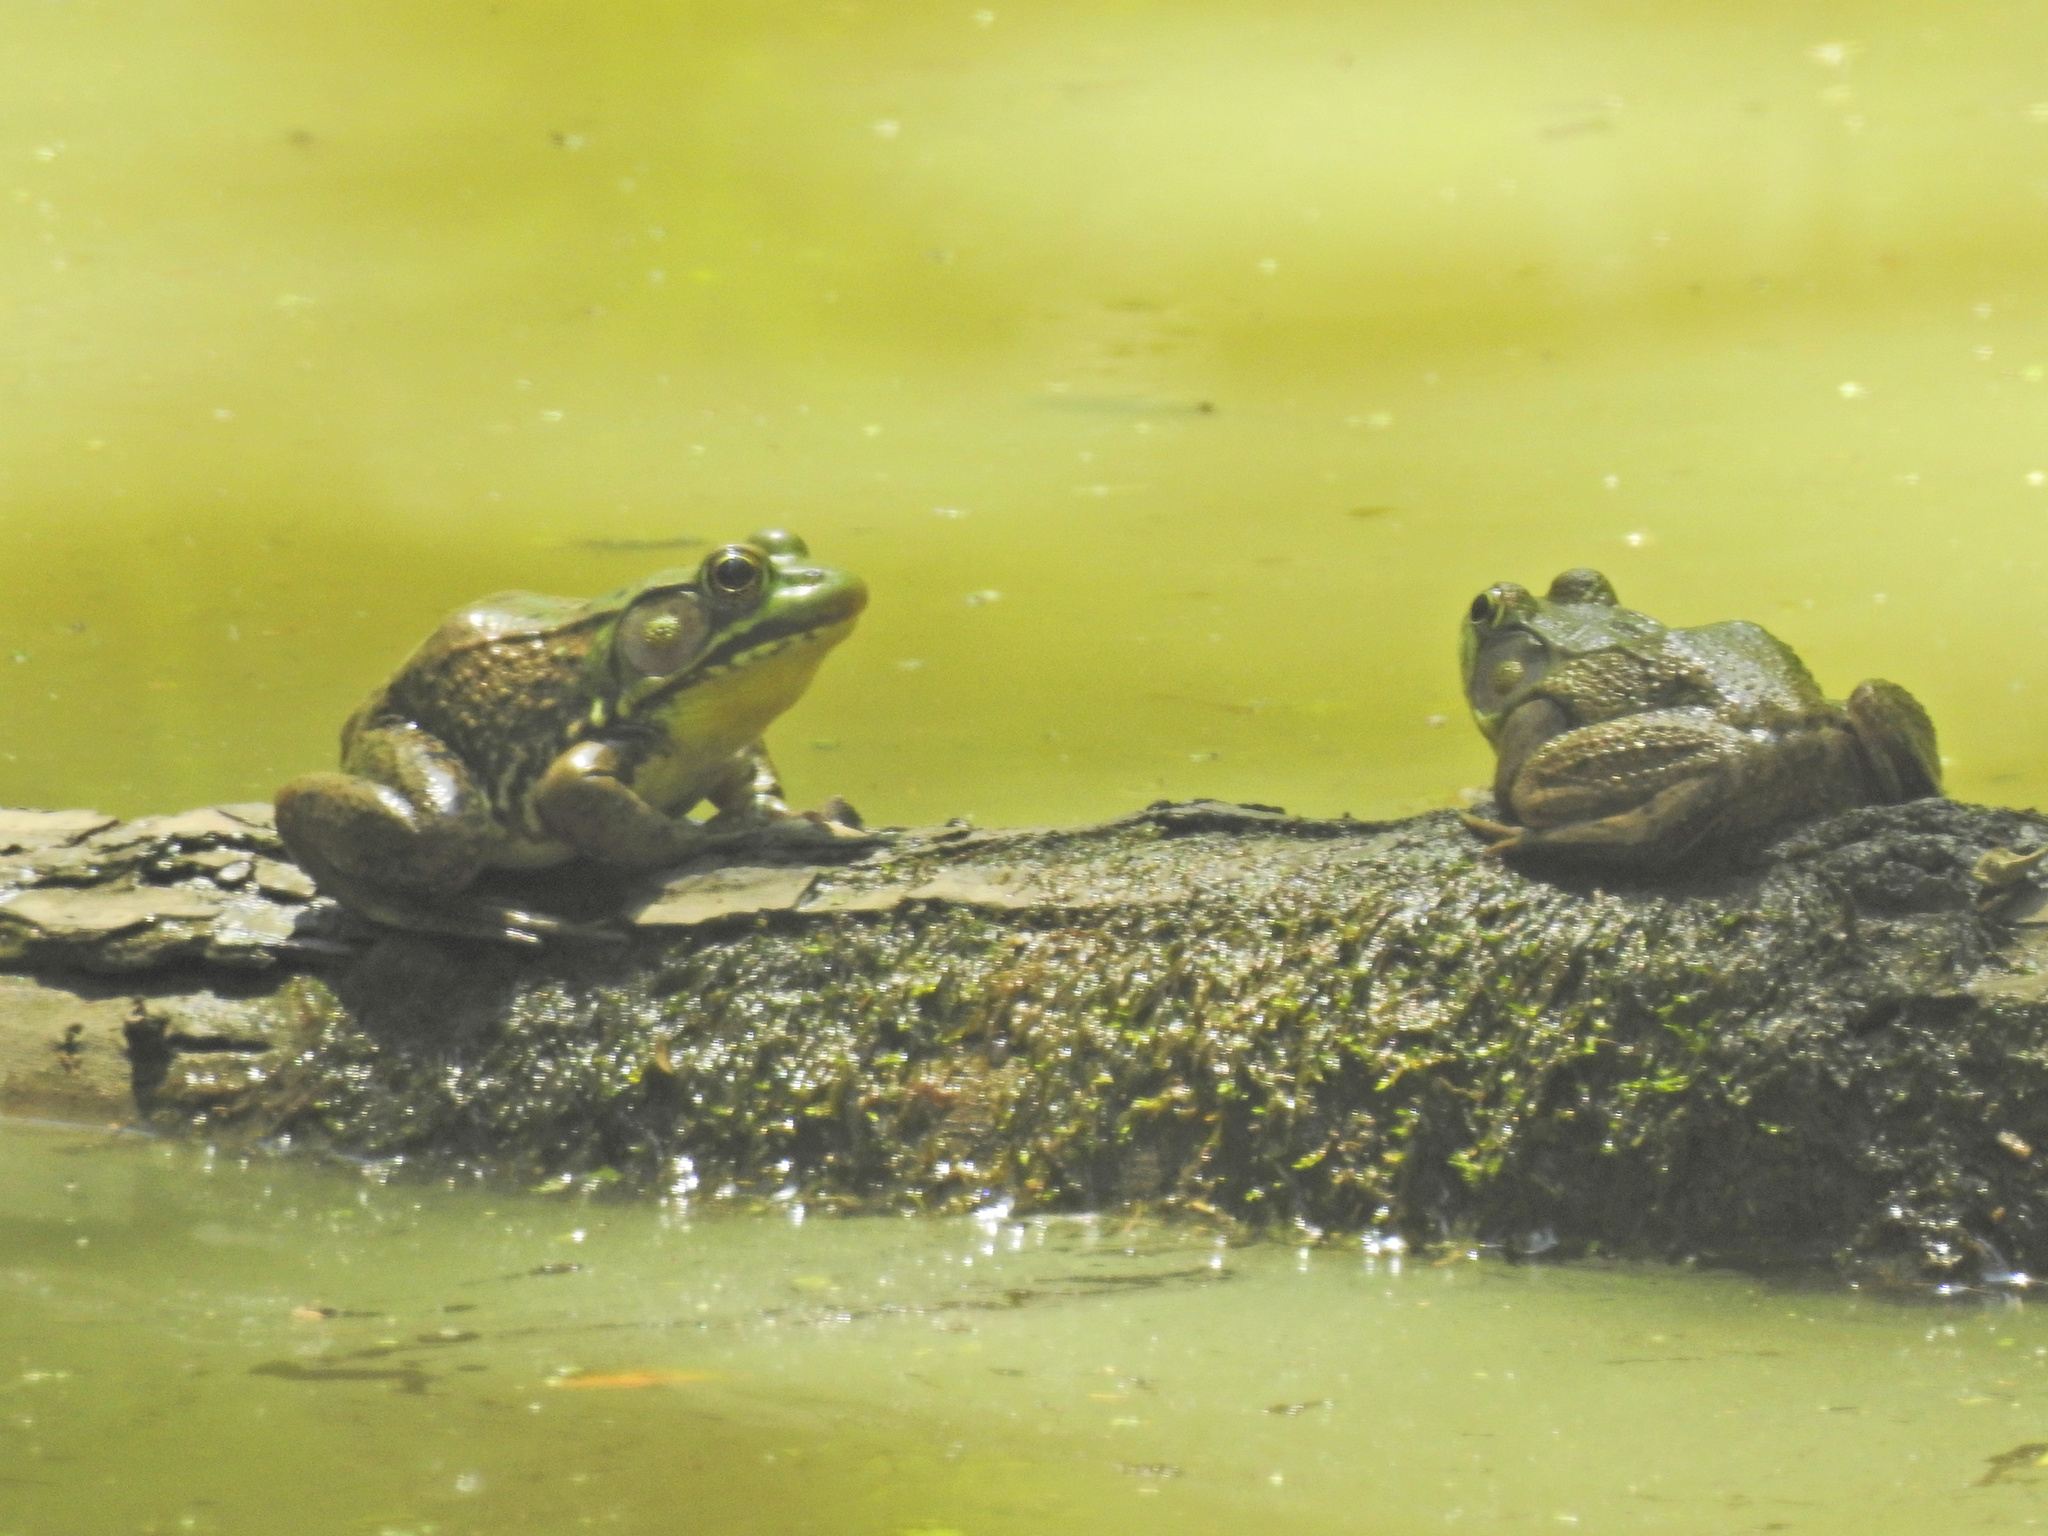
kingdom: Animalia
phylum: Chordata
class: Amphibia
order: Anura
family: Ranidae
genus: Lithobates
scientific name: Lithobates clamitans
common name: Green frog
